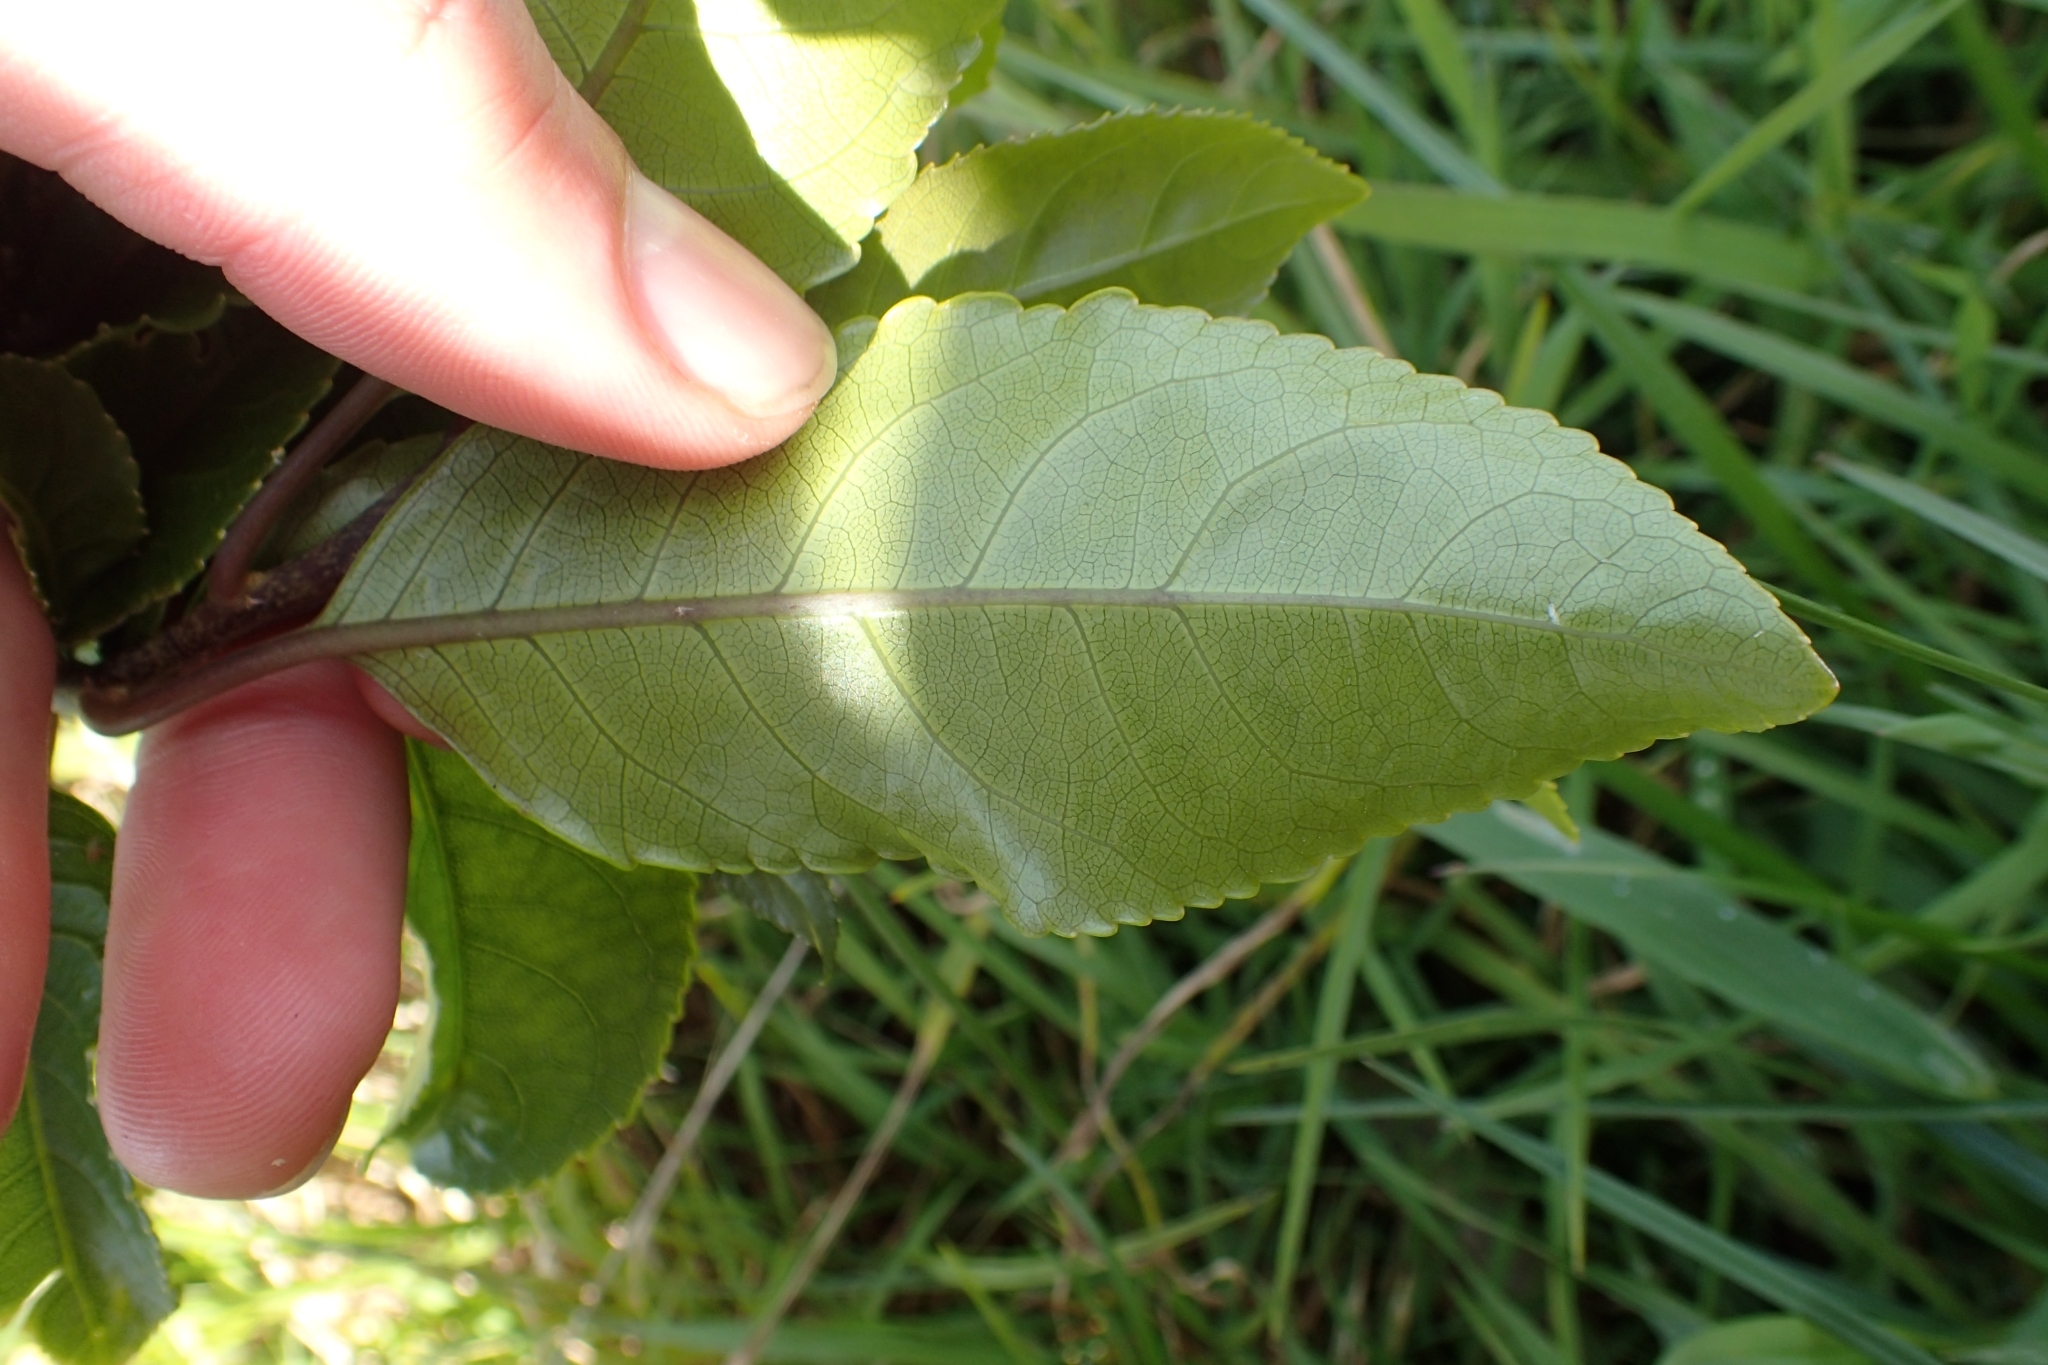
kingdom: Plantae
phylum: Tracheophyta
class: Magnoliopsida
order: Malpighiales
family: Violaceae
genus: Melicytus
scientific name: Melicytus ramiflorus
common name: Mahoe
